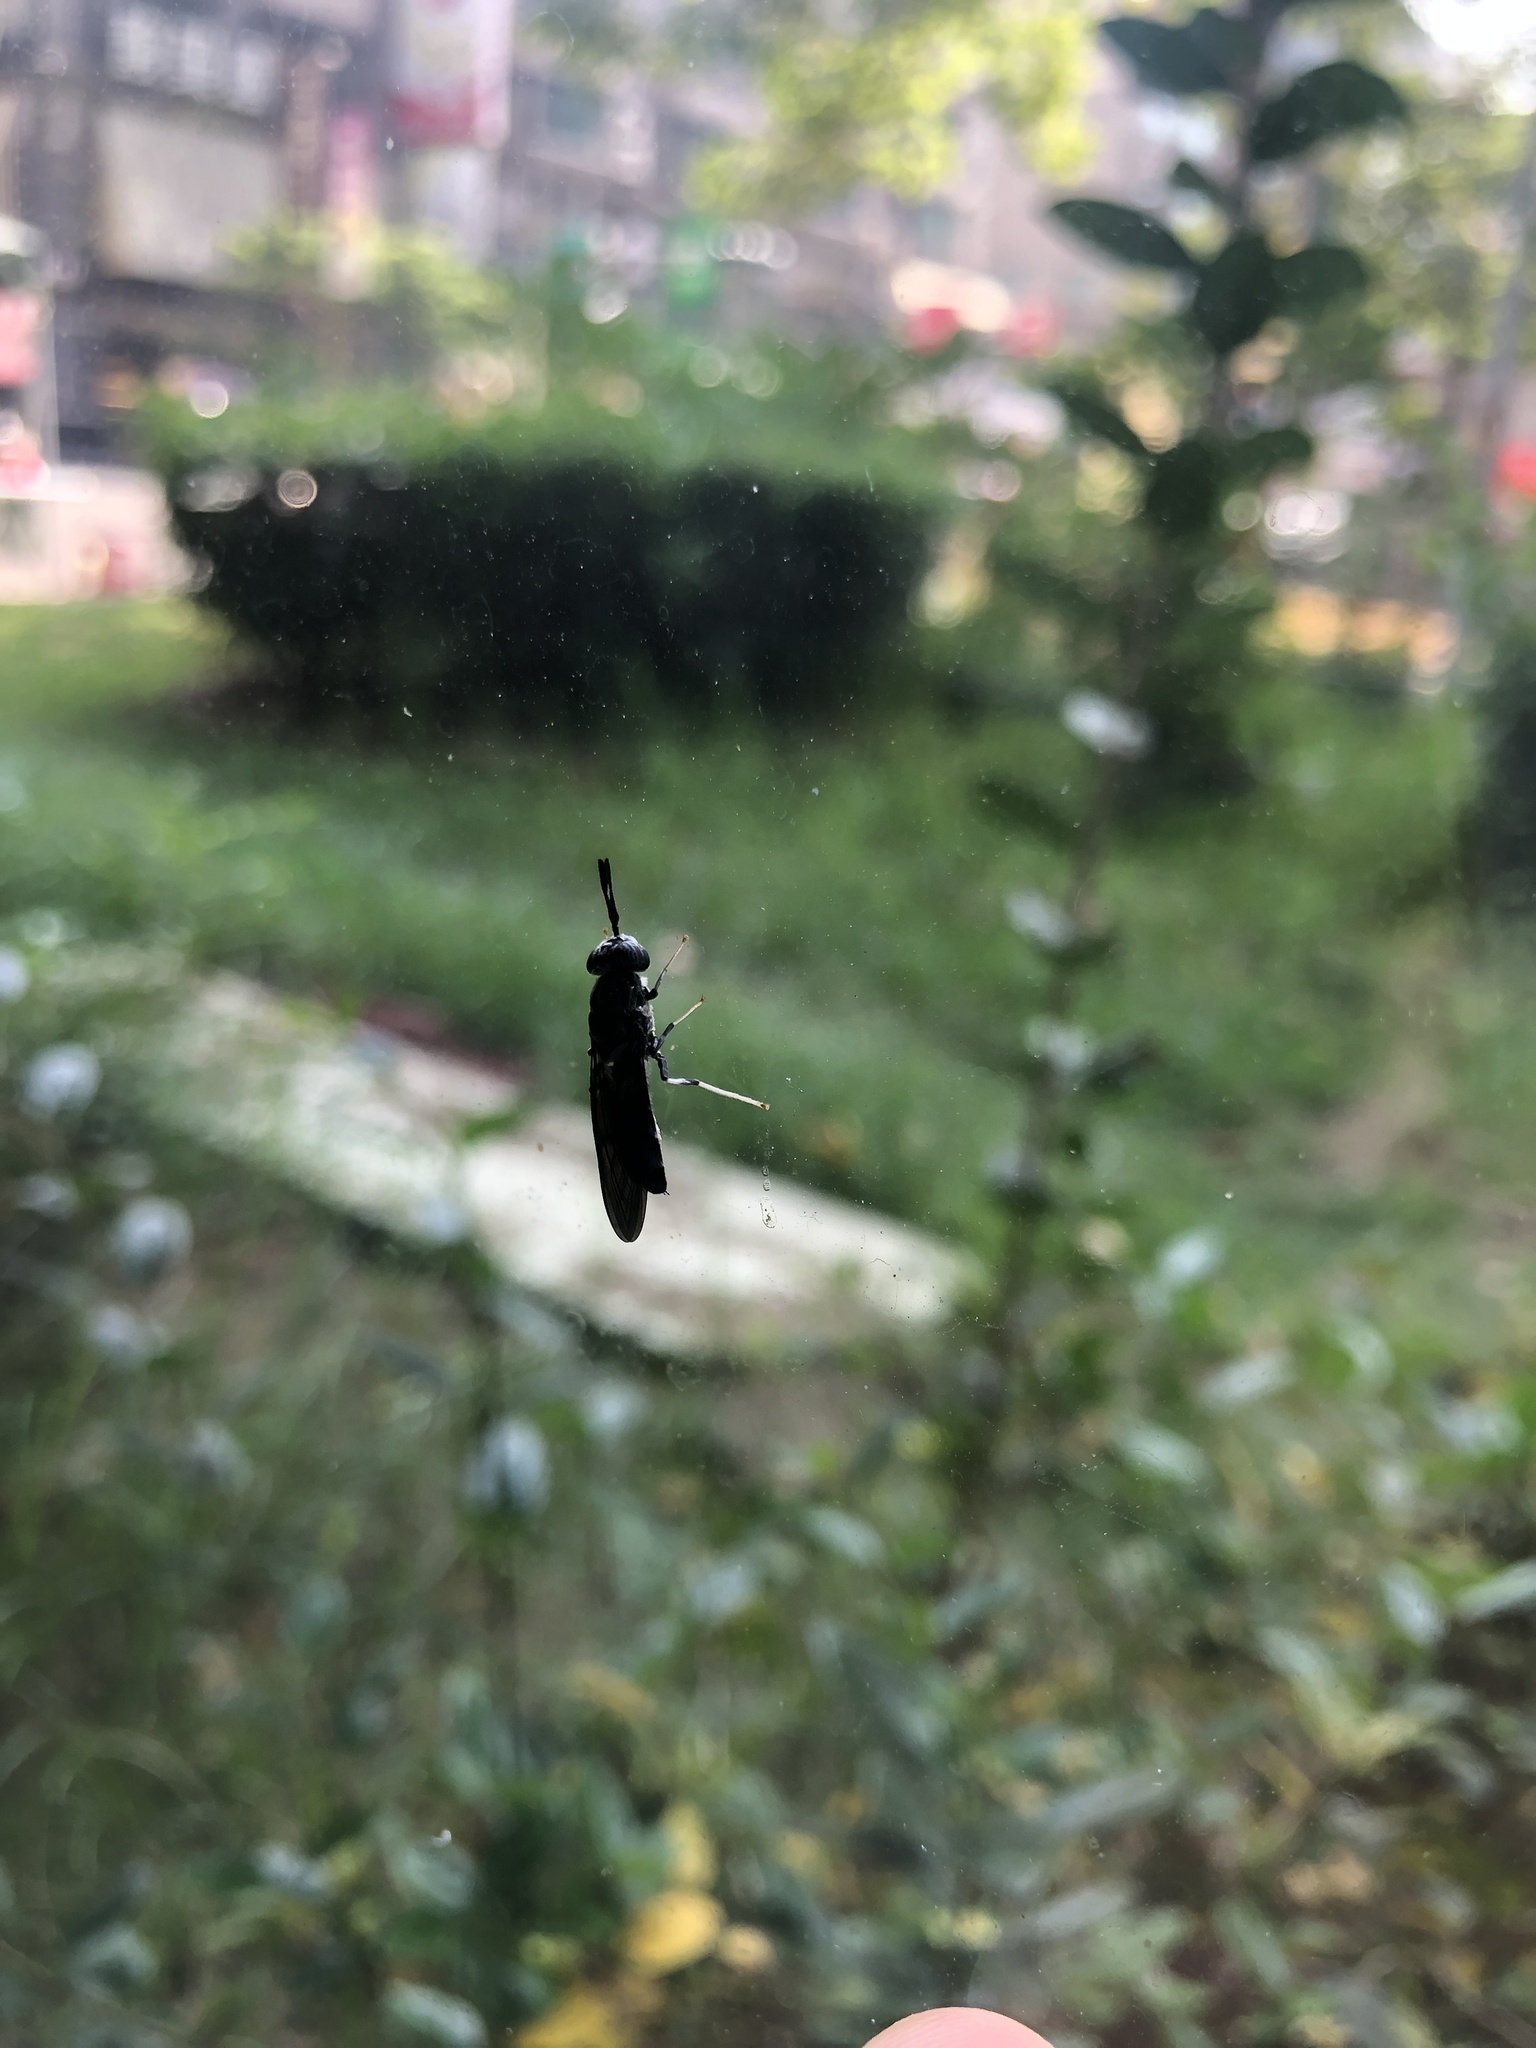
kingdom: Animalia
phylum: Arthropoda
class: Insecta
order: Diptera
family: Stratiomyidae
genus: Hermetia
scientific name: Hermetia illucens
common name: Black soldier fly
